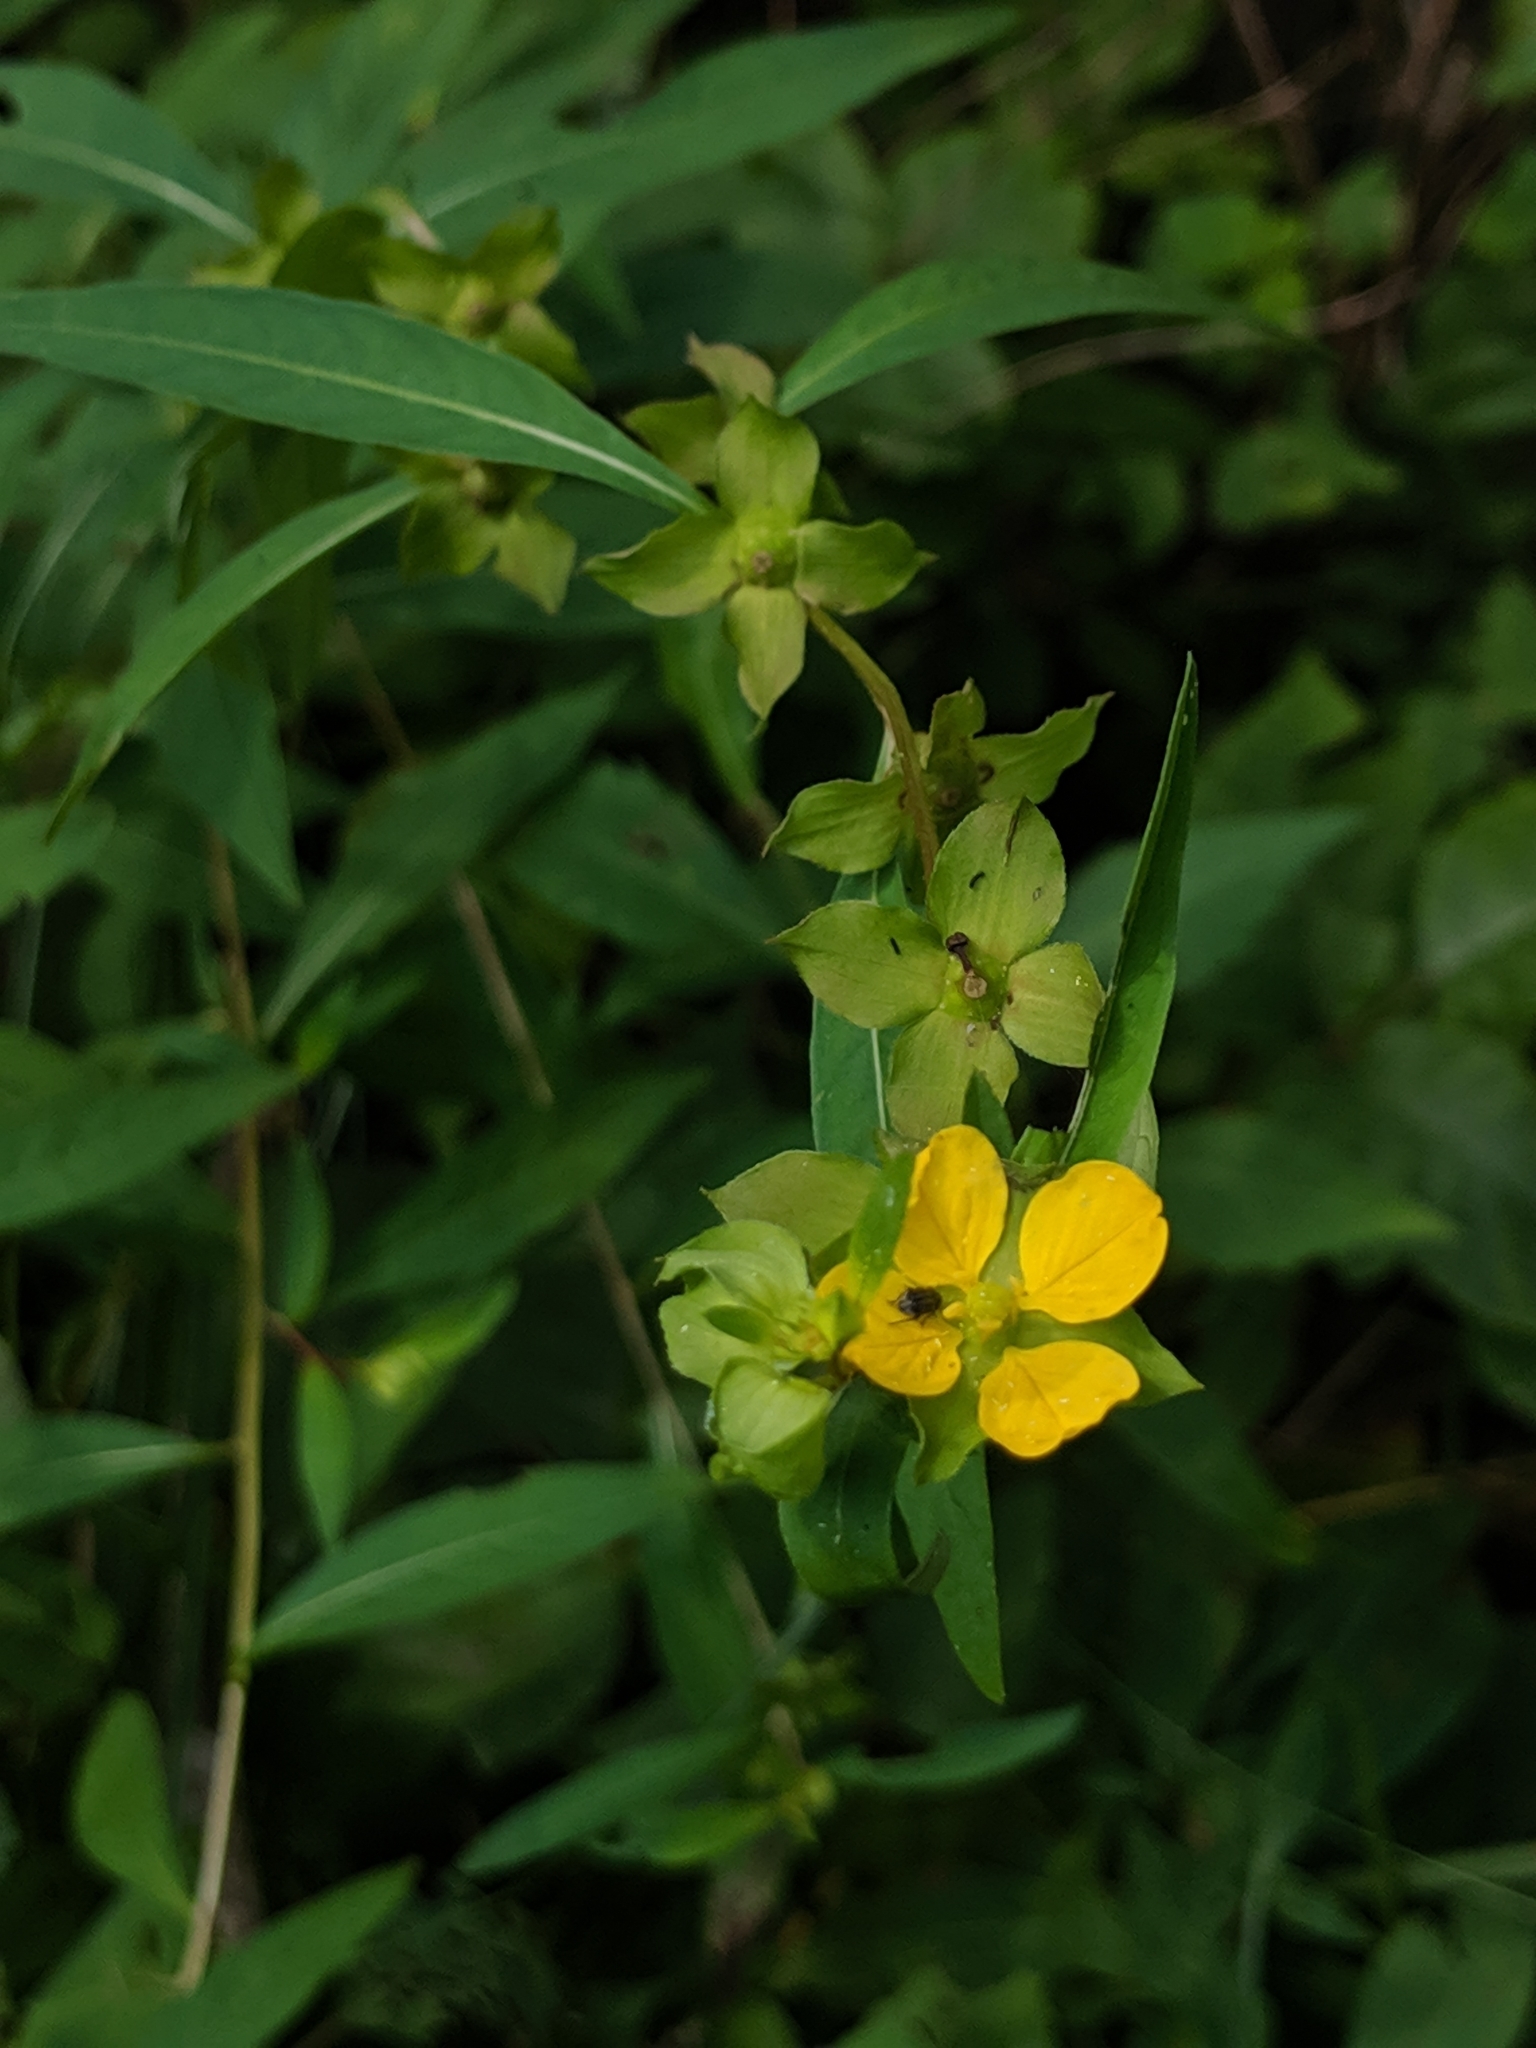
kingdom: Plantae
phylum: Tracheophyta
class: Magnoliopsida
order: Myrtales
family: Onagraceae
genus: Ludwigia
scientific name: Ludwigia alternifolia
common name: Rattlebox
